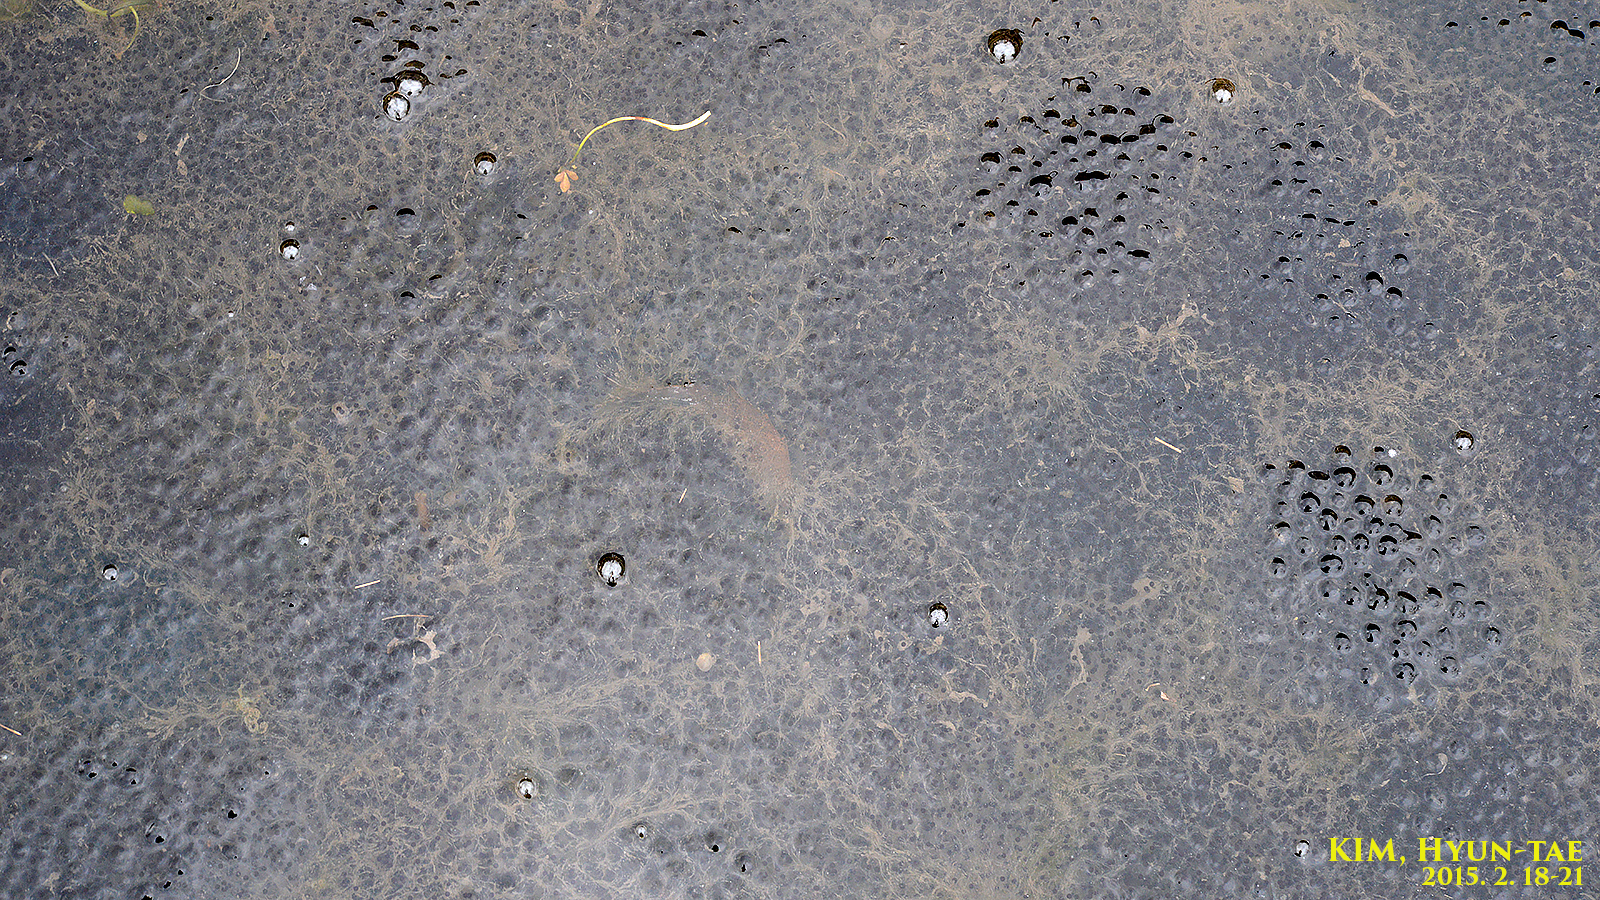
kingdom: Animalia
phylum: Chordata
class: Amphibia
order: Anura
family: Ranidae
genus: Rana
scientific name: Rana uenoi
